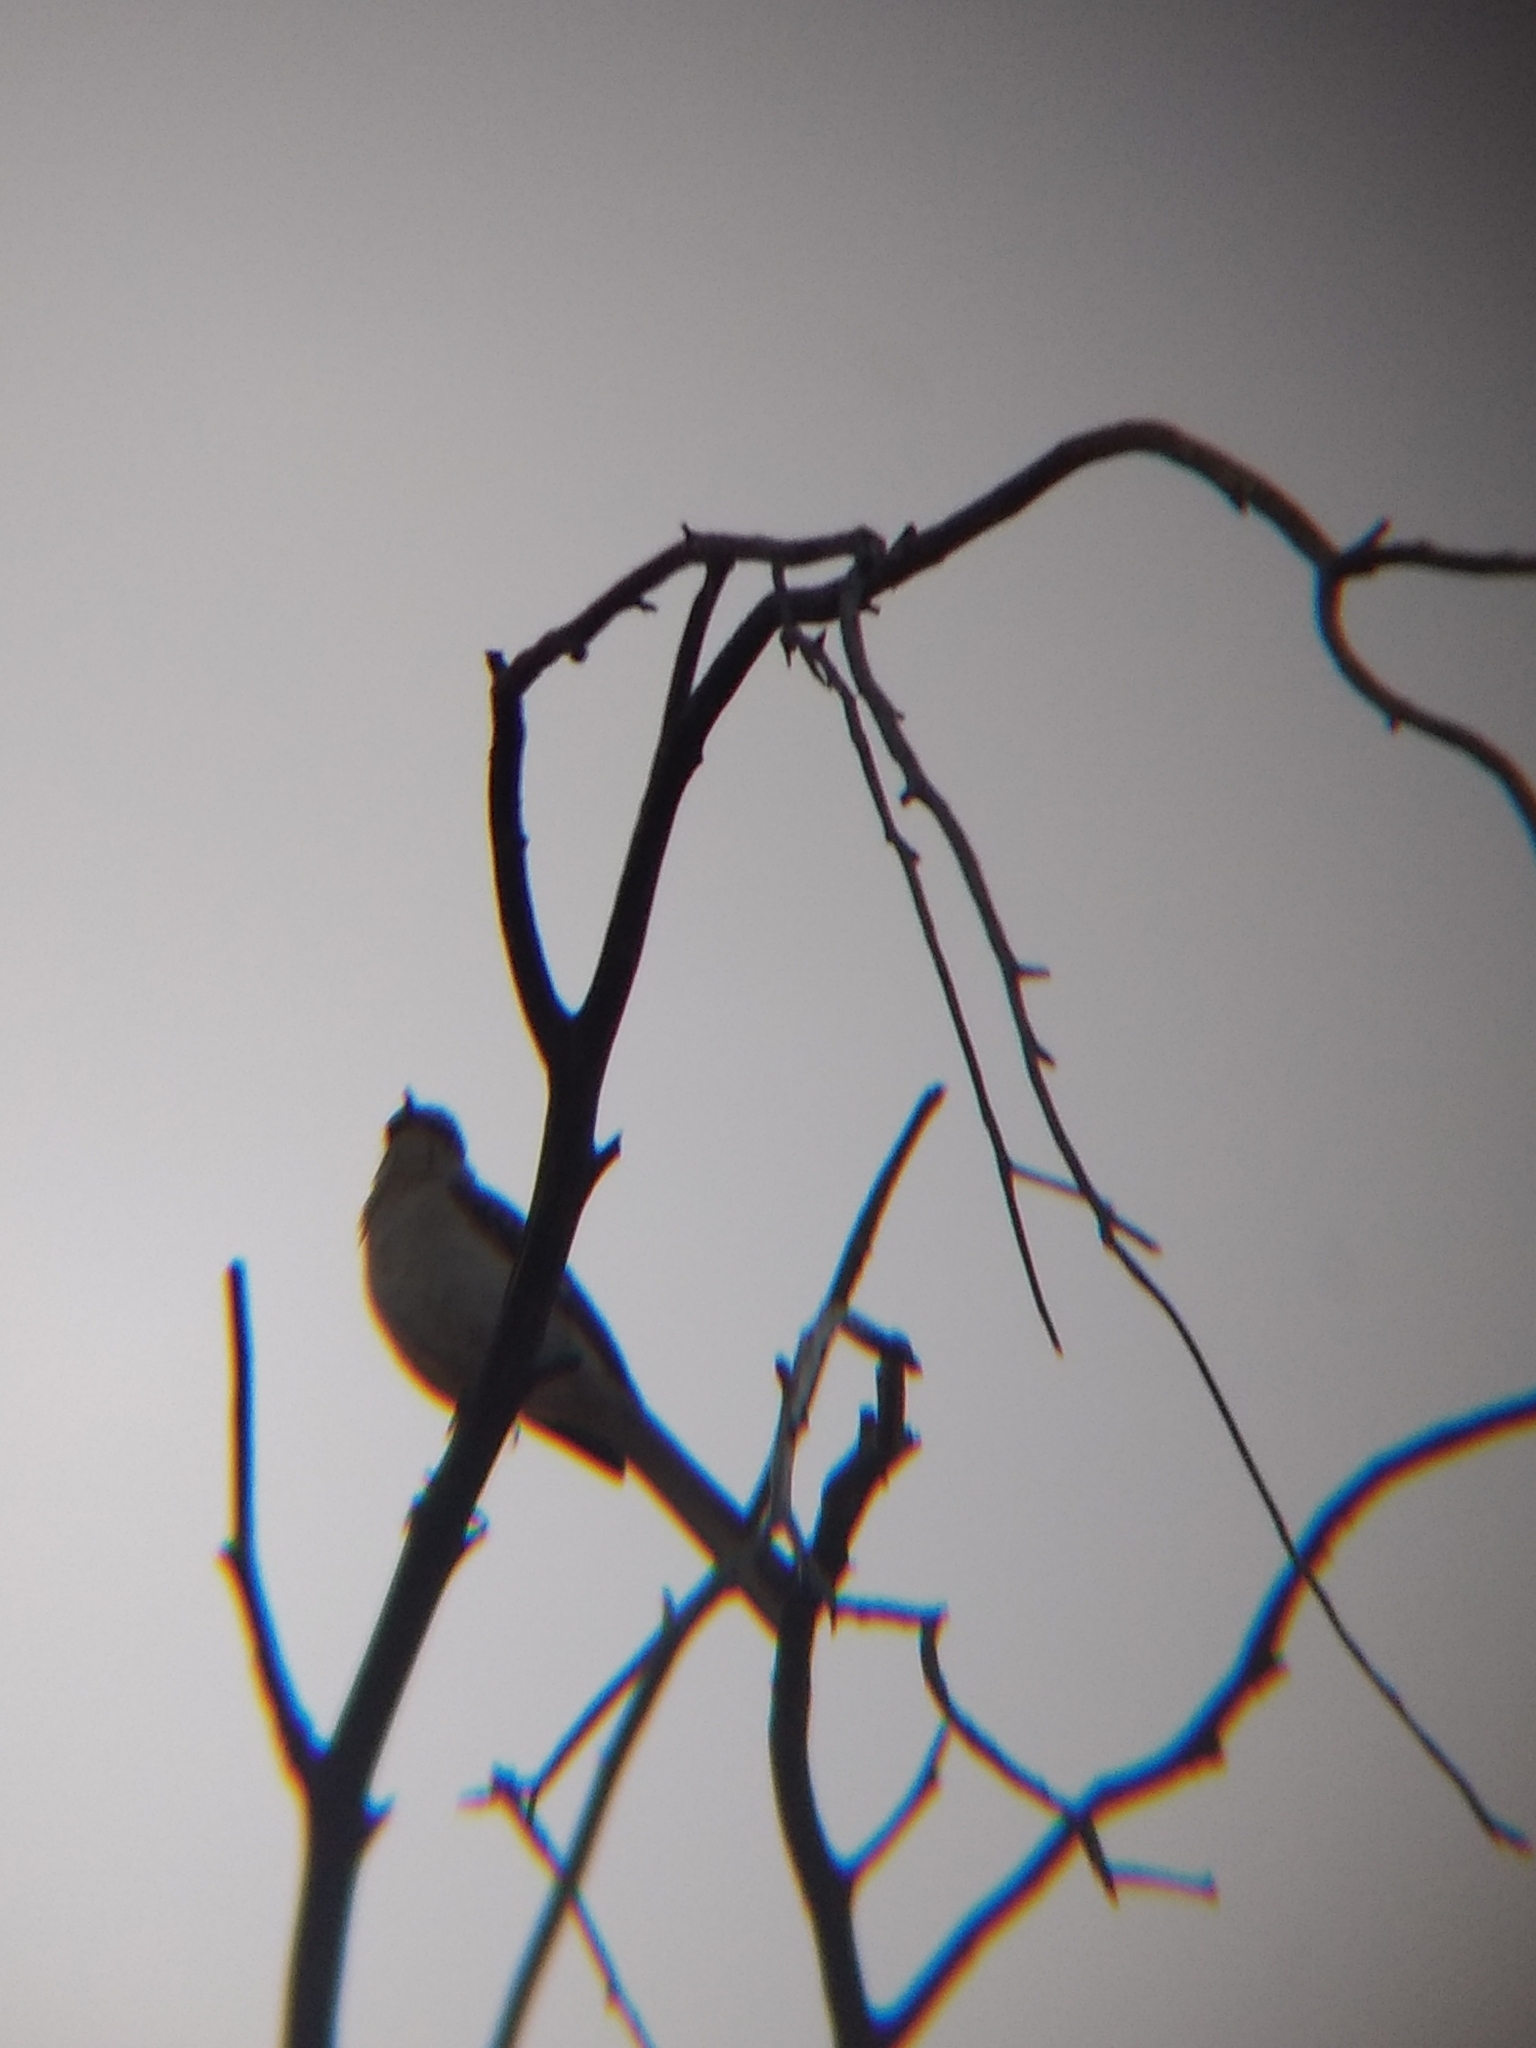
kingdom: Animalia
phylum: Chordata
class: Aves
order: Passeriformes
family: Mimidae
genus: Mimus
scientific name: Mimus polyglottos
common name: Northern mockingbird
